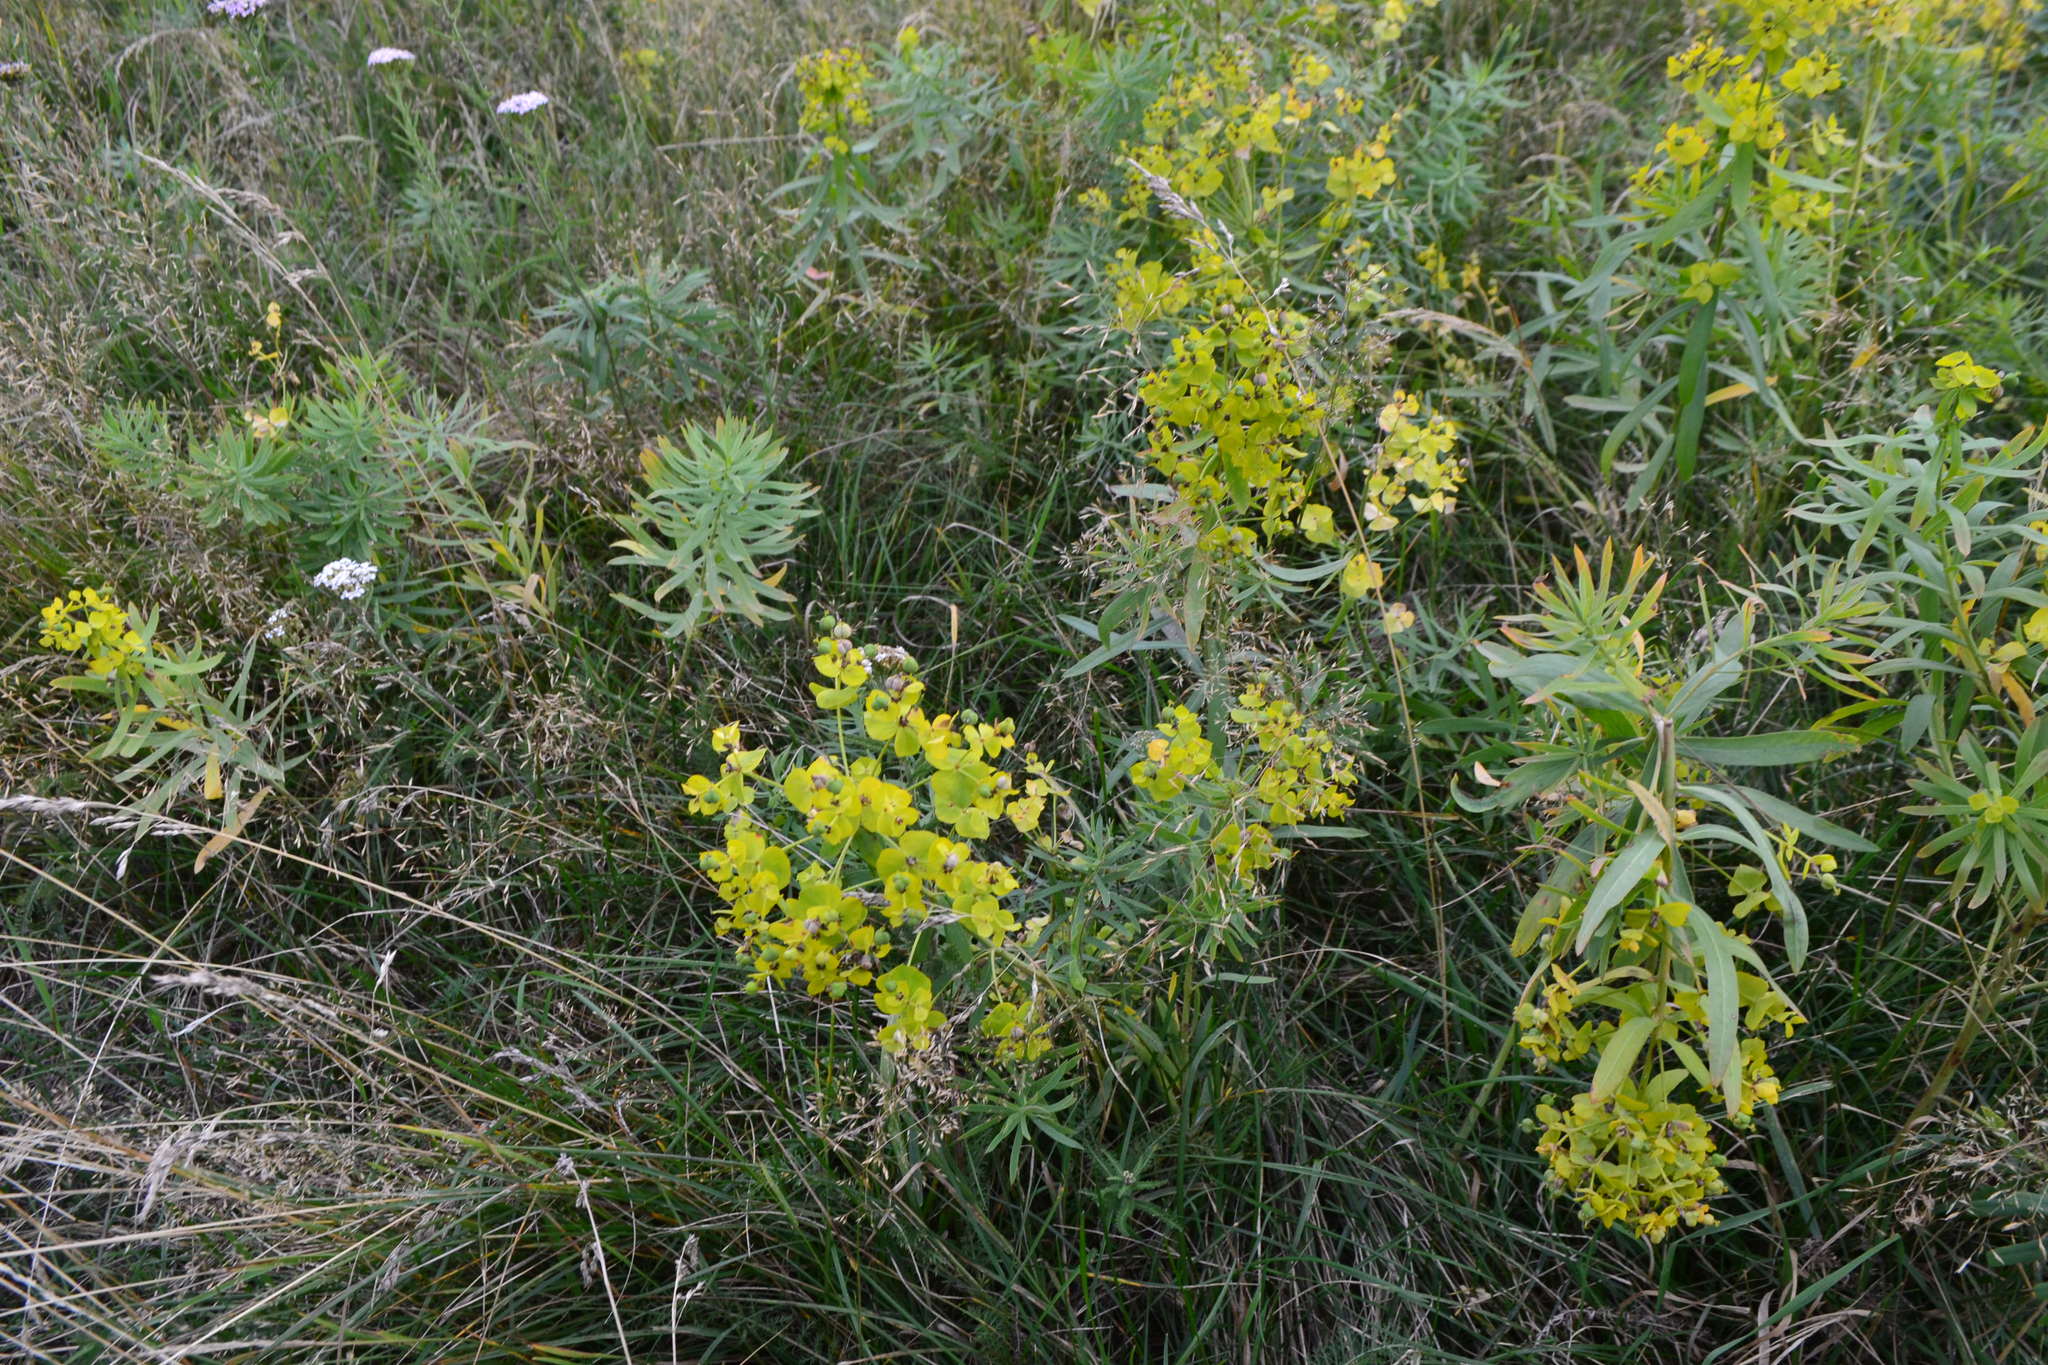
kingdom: Plantae
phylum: Tracheophyta
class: Magnoliopsida
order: Malpighiales
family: Euphorbiaceae
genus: Euphorbia
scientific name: Euphorbia virgata
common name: Leafy spurge
